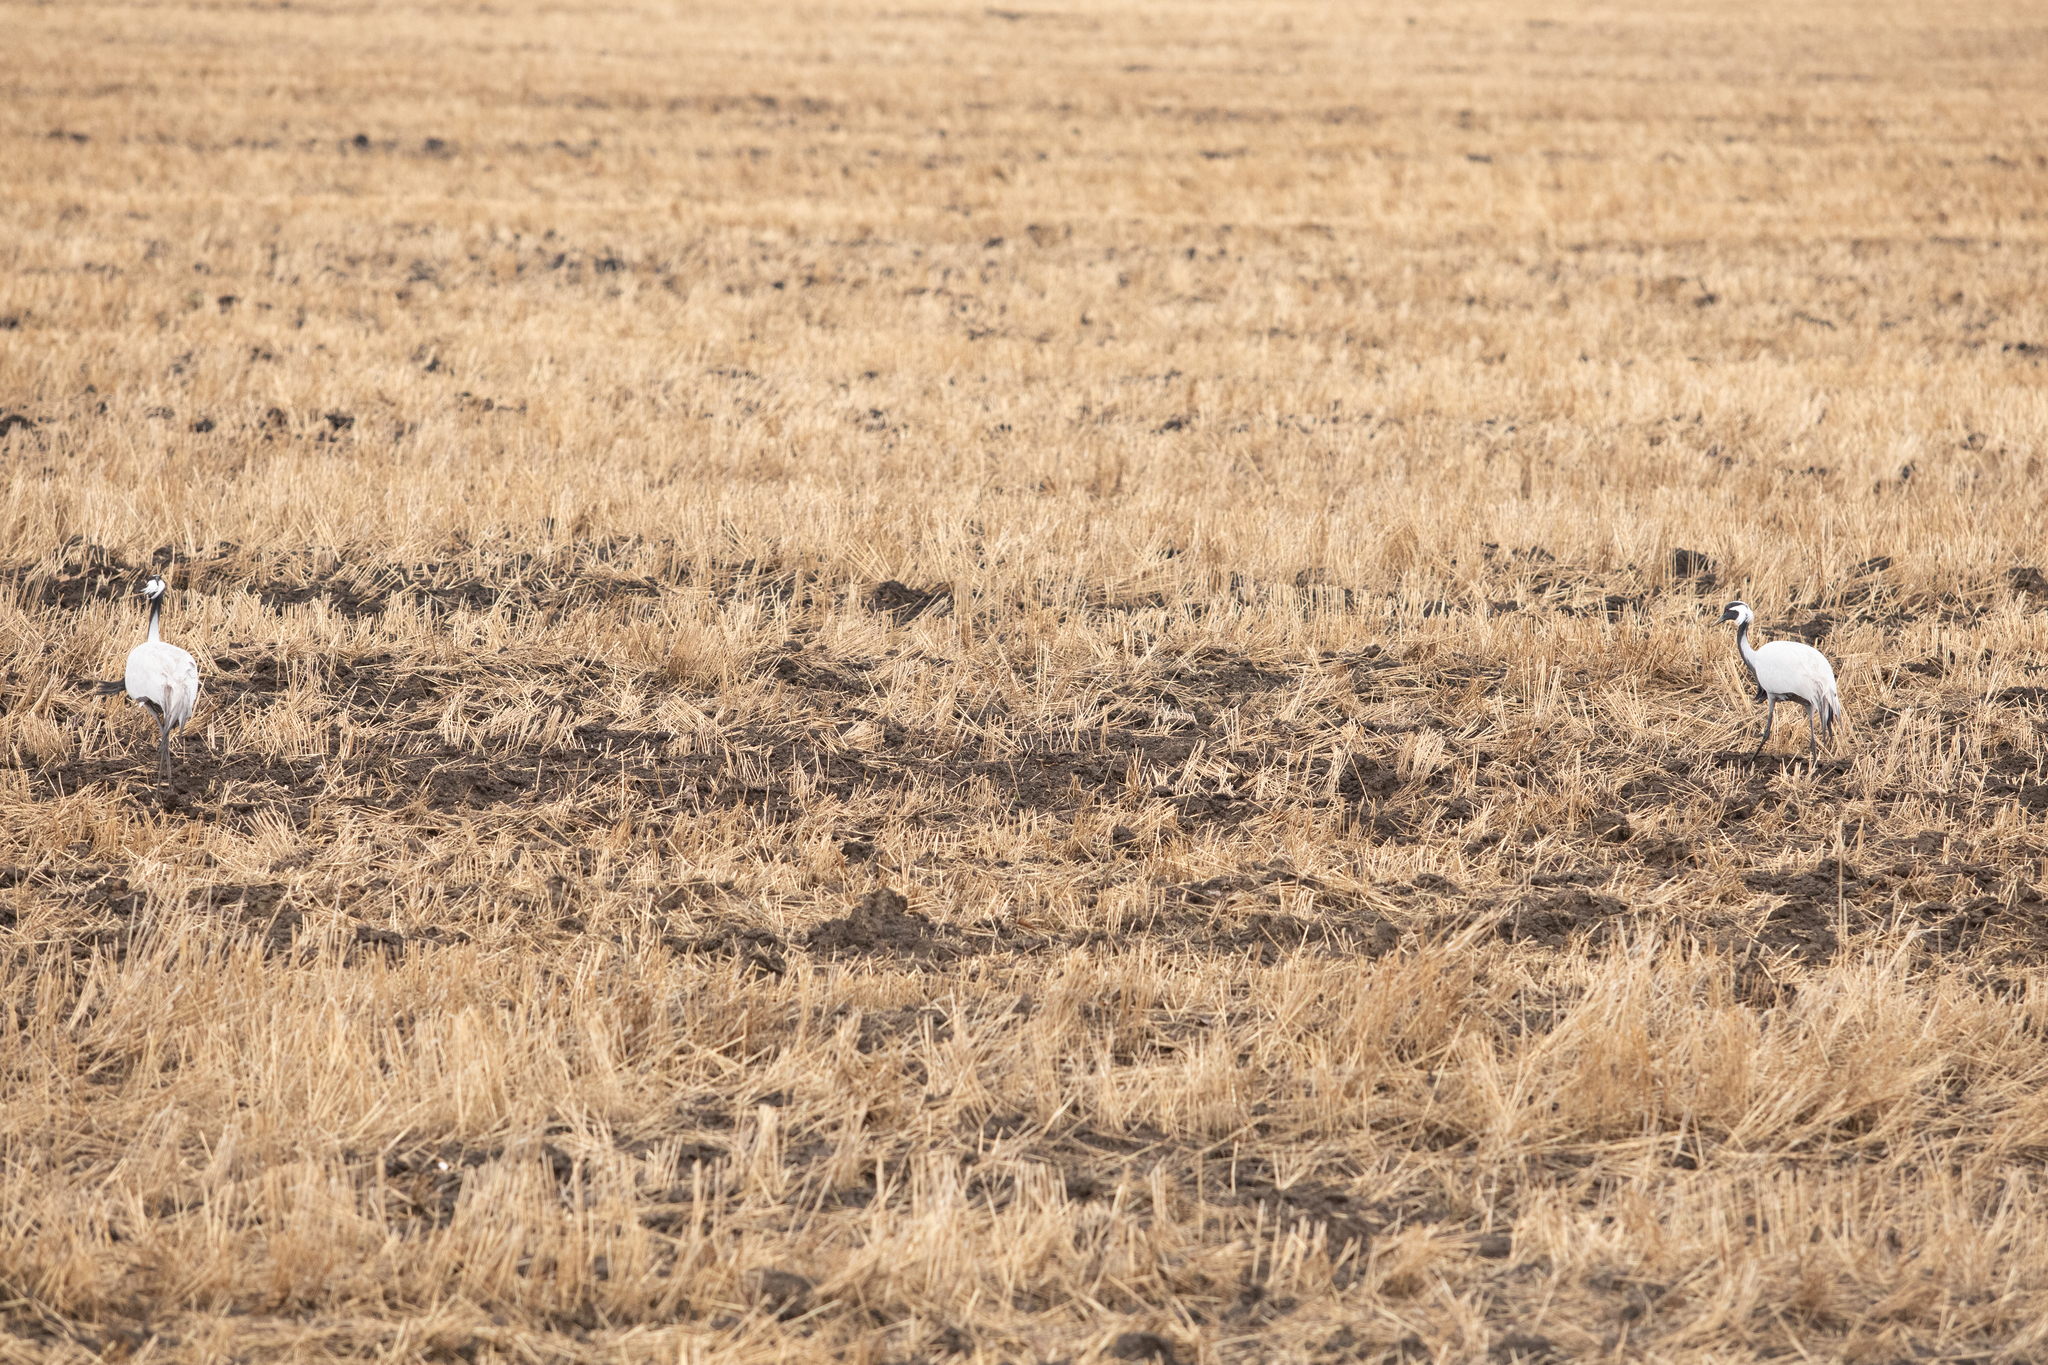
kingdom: Animalia
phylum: Chordata
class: Aves
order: Gruiformes
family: Gruidae
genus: Anthropoides
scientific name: Anthropoides virgo
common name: Demoiselle crane
